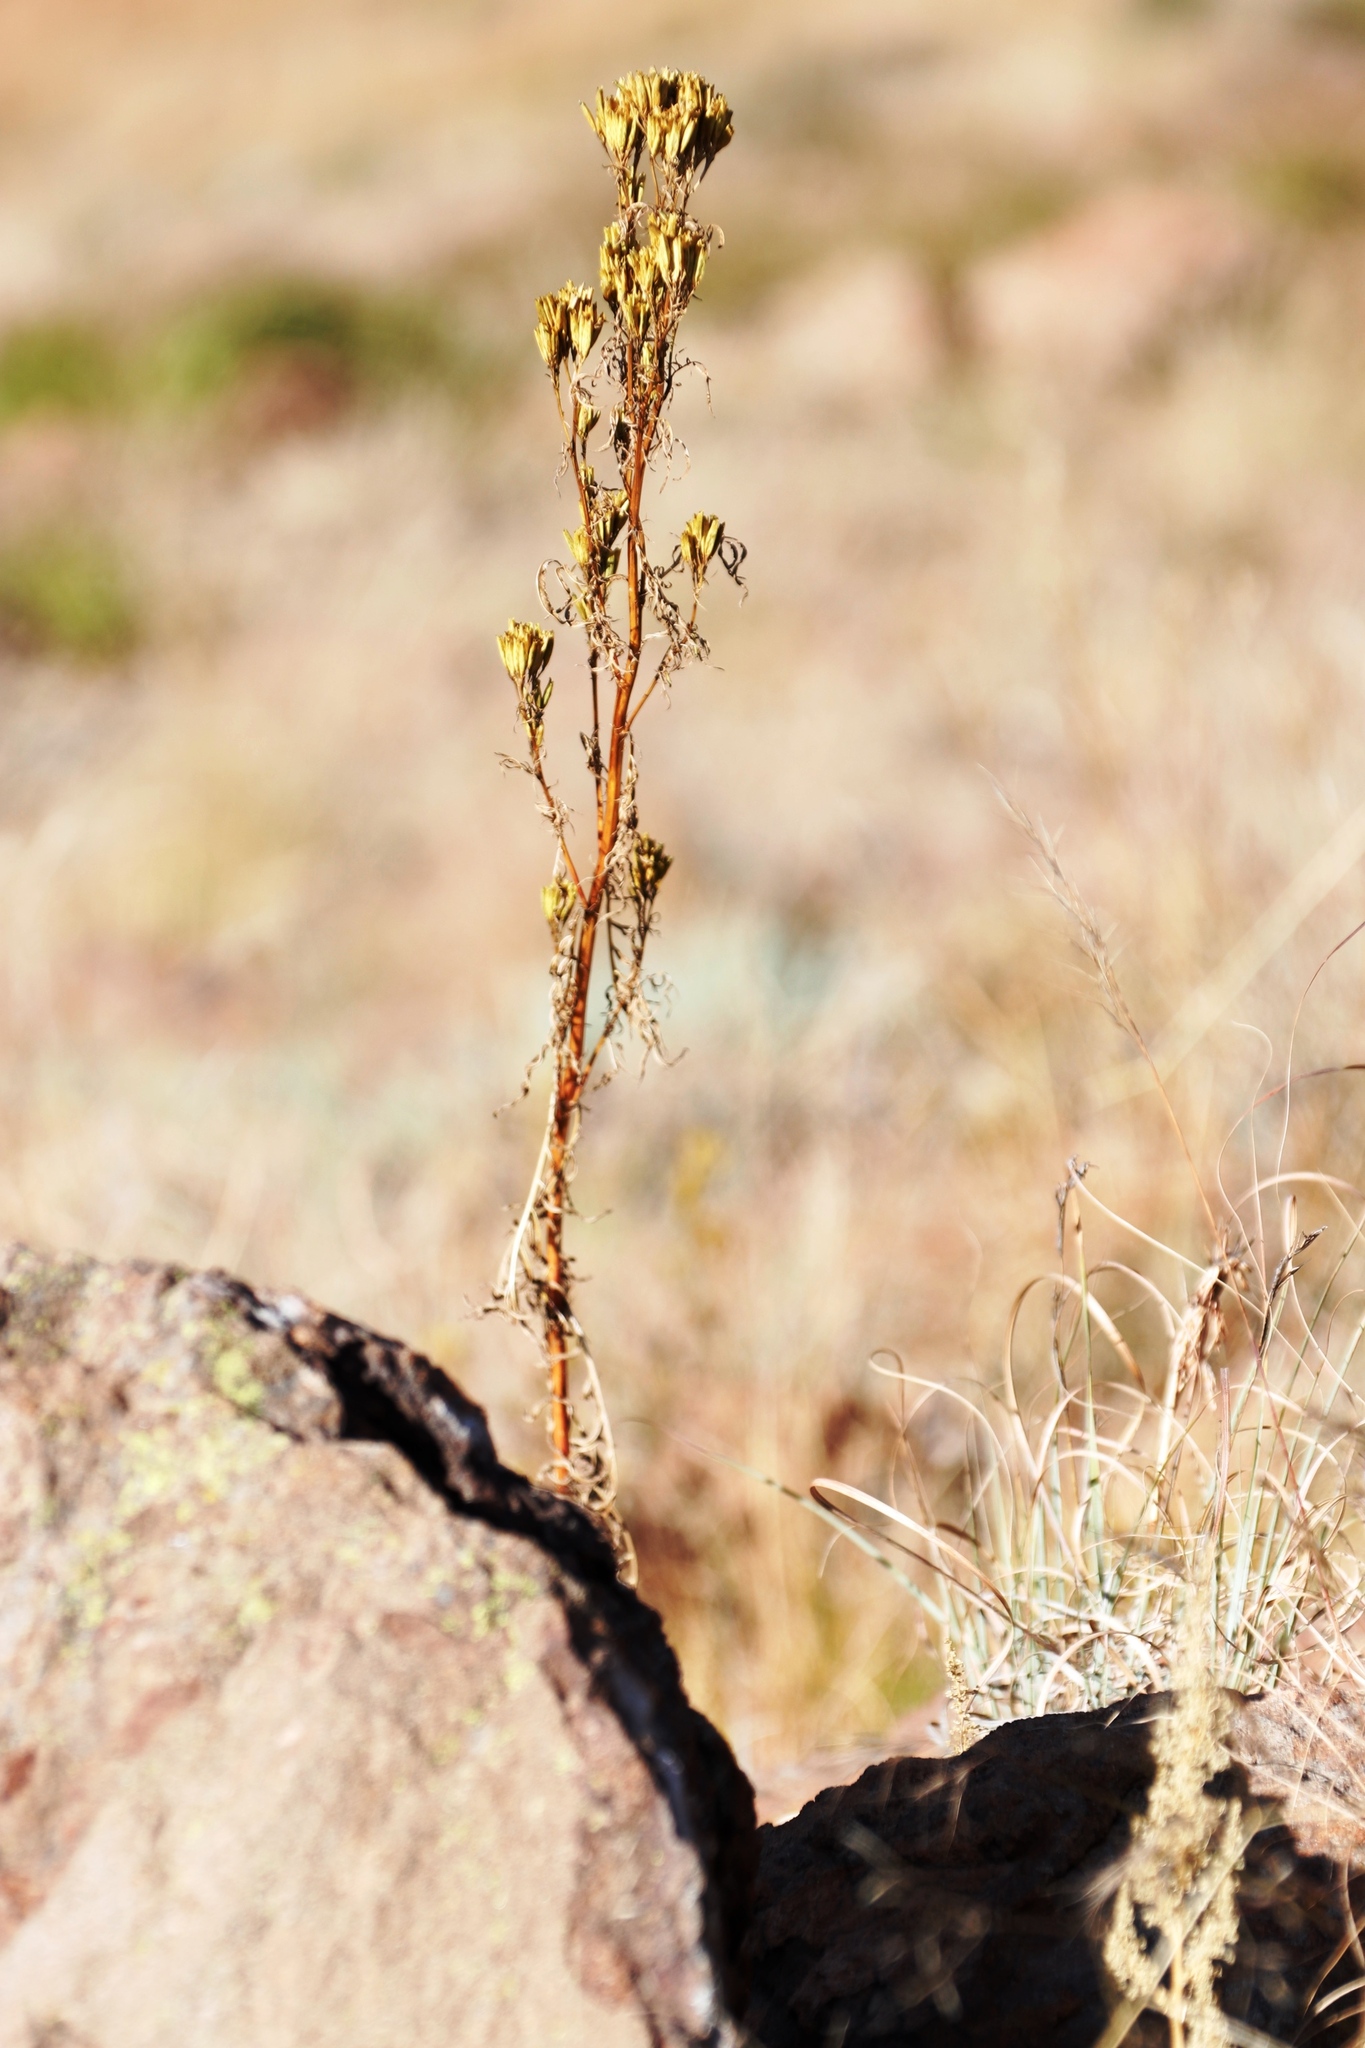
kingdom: Plantae
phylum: Tracheophyta
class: Magnoliopsida
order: Asterales
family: Asteraceae
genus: Tagetes
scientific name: Tagetes minuta
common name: Muster john henry
